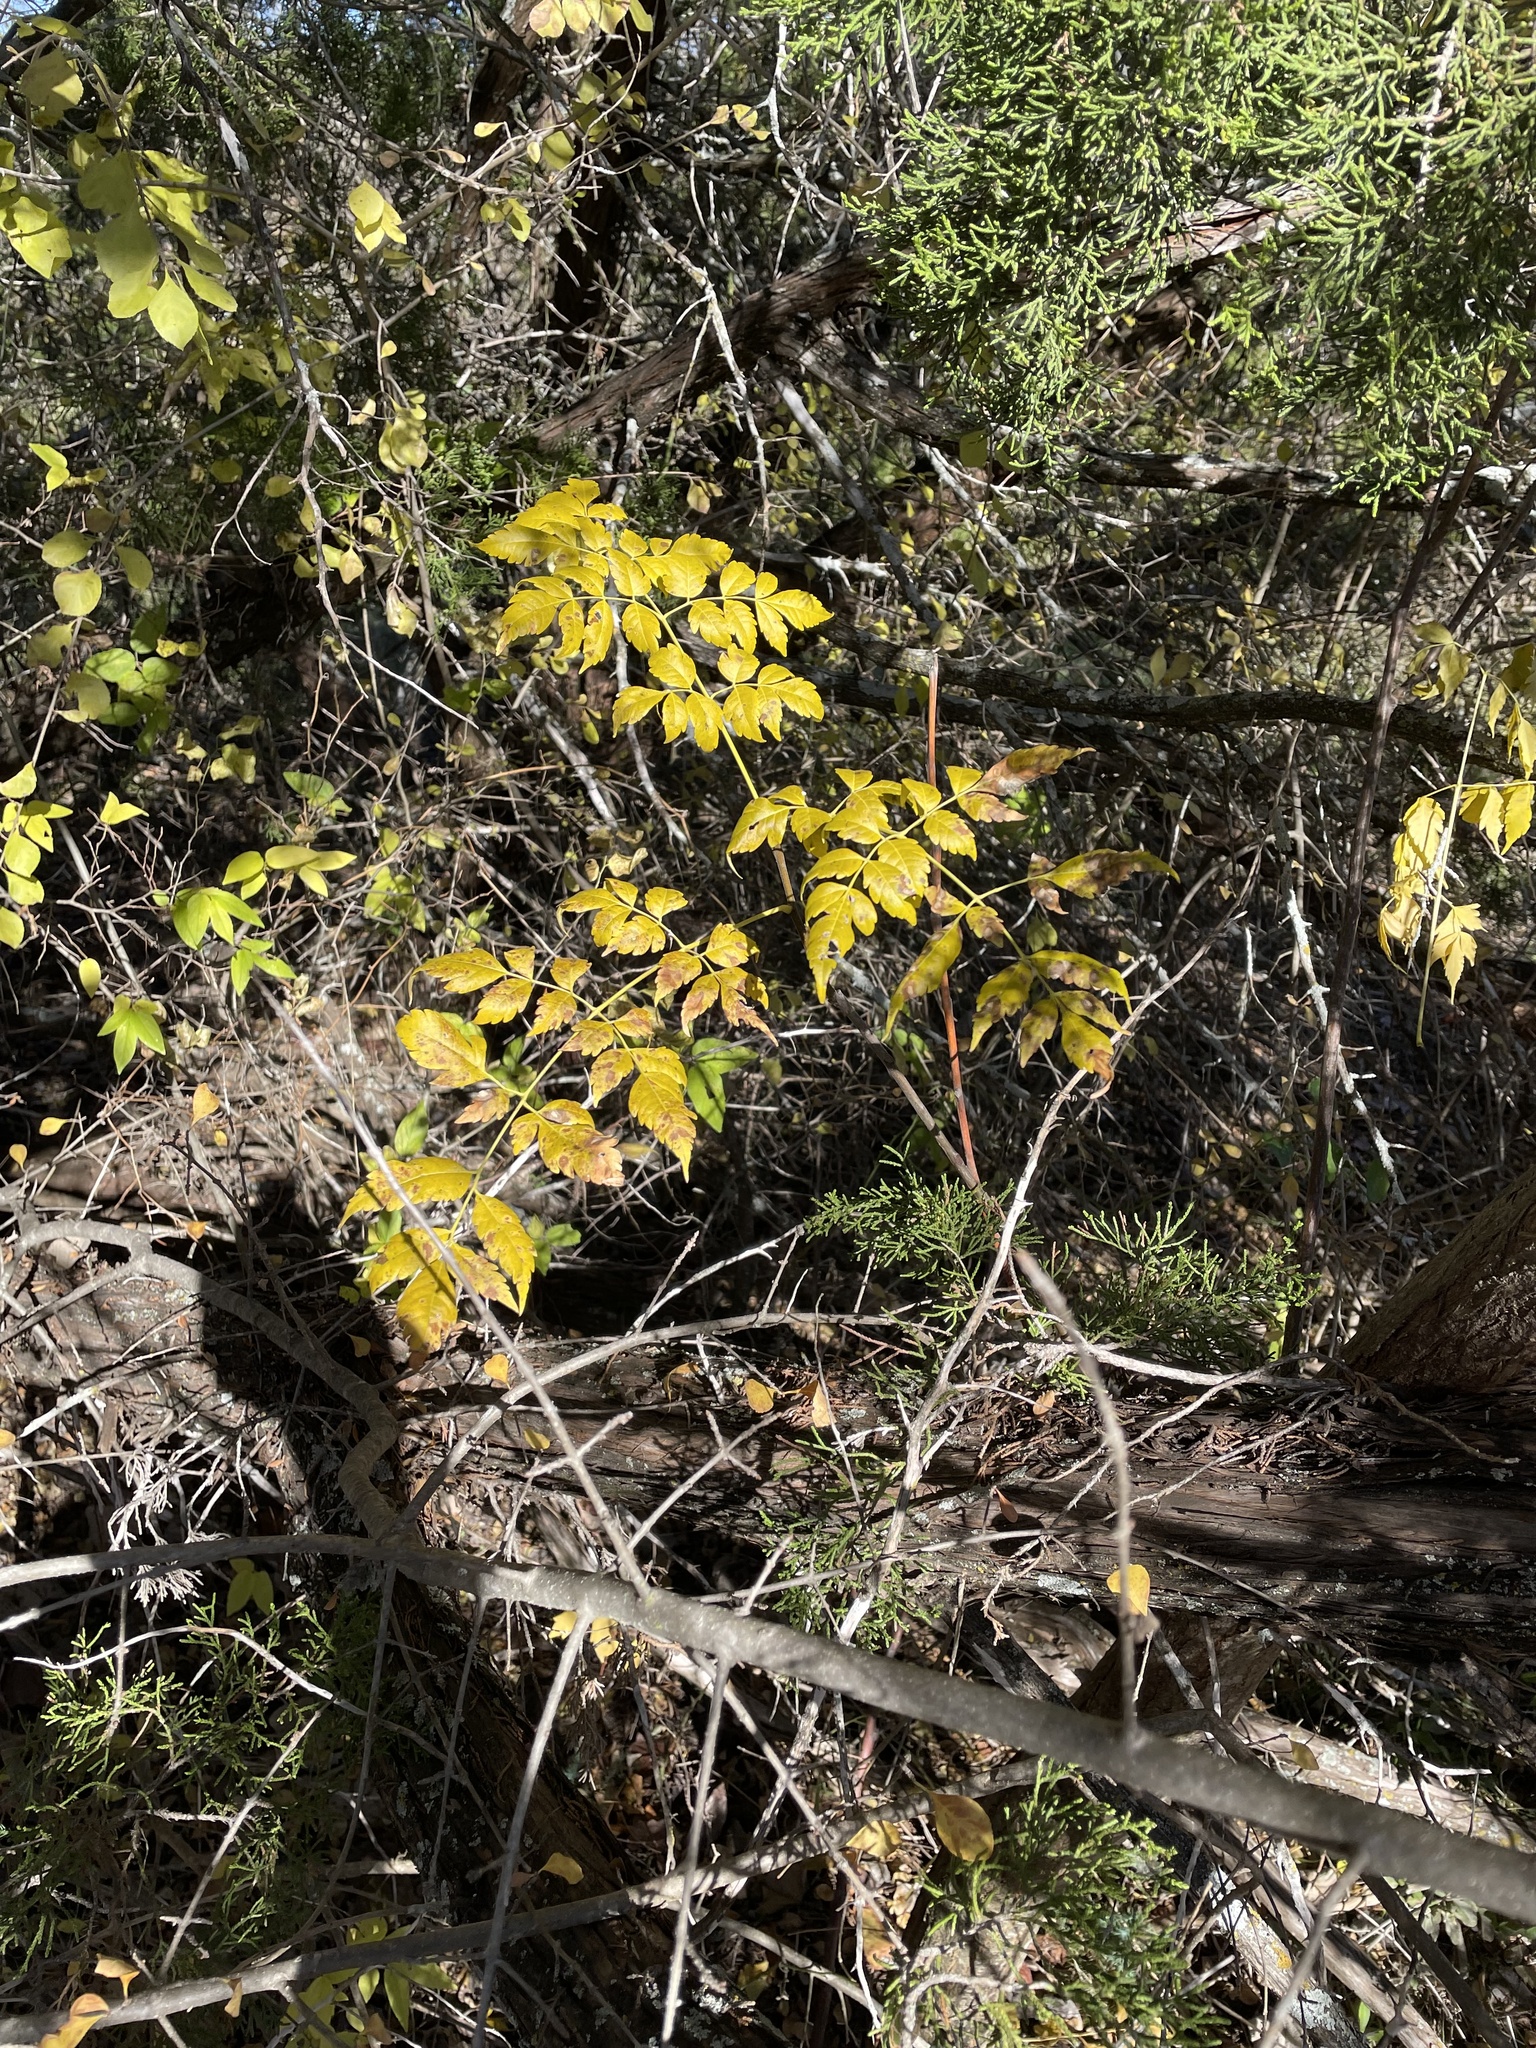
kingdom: Plantae
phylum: Tracheophyta
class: Magnoliopsida
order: Sapindales
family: Meliaceae
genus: Melia
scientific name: Melia azedarach
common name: Chinaberrytree
